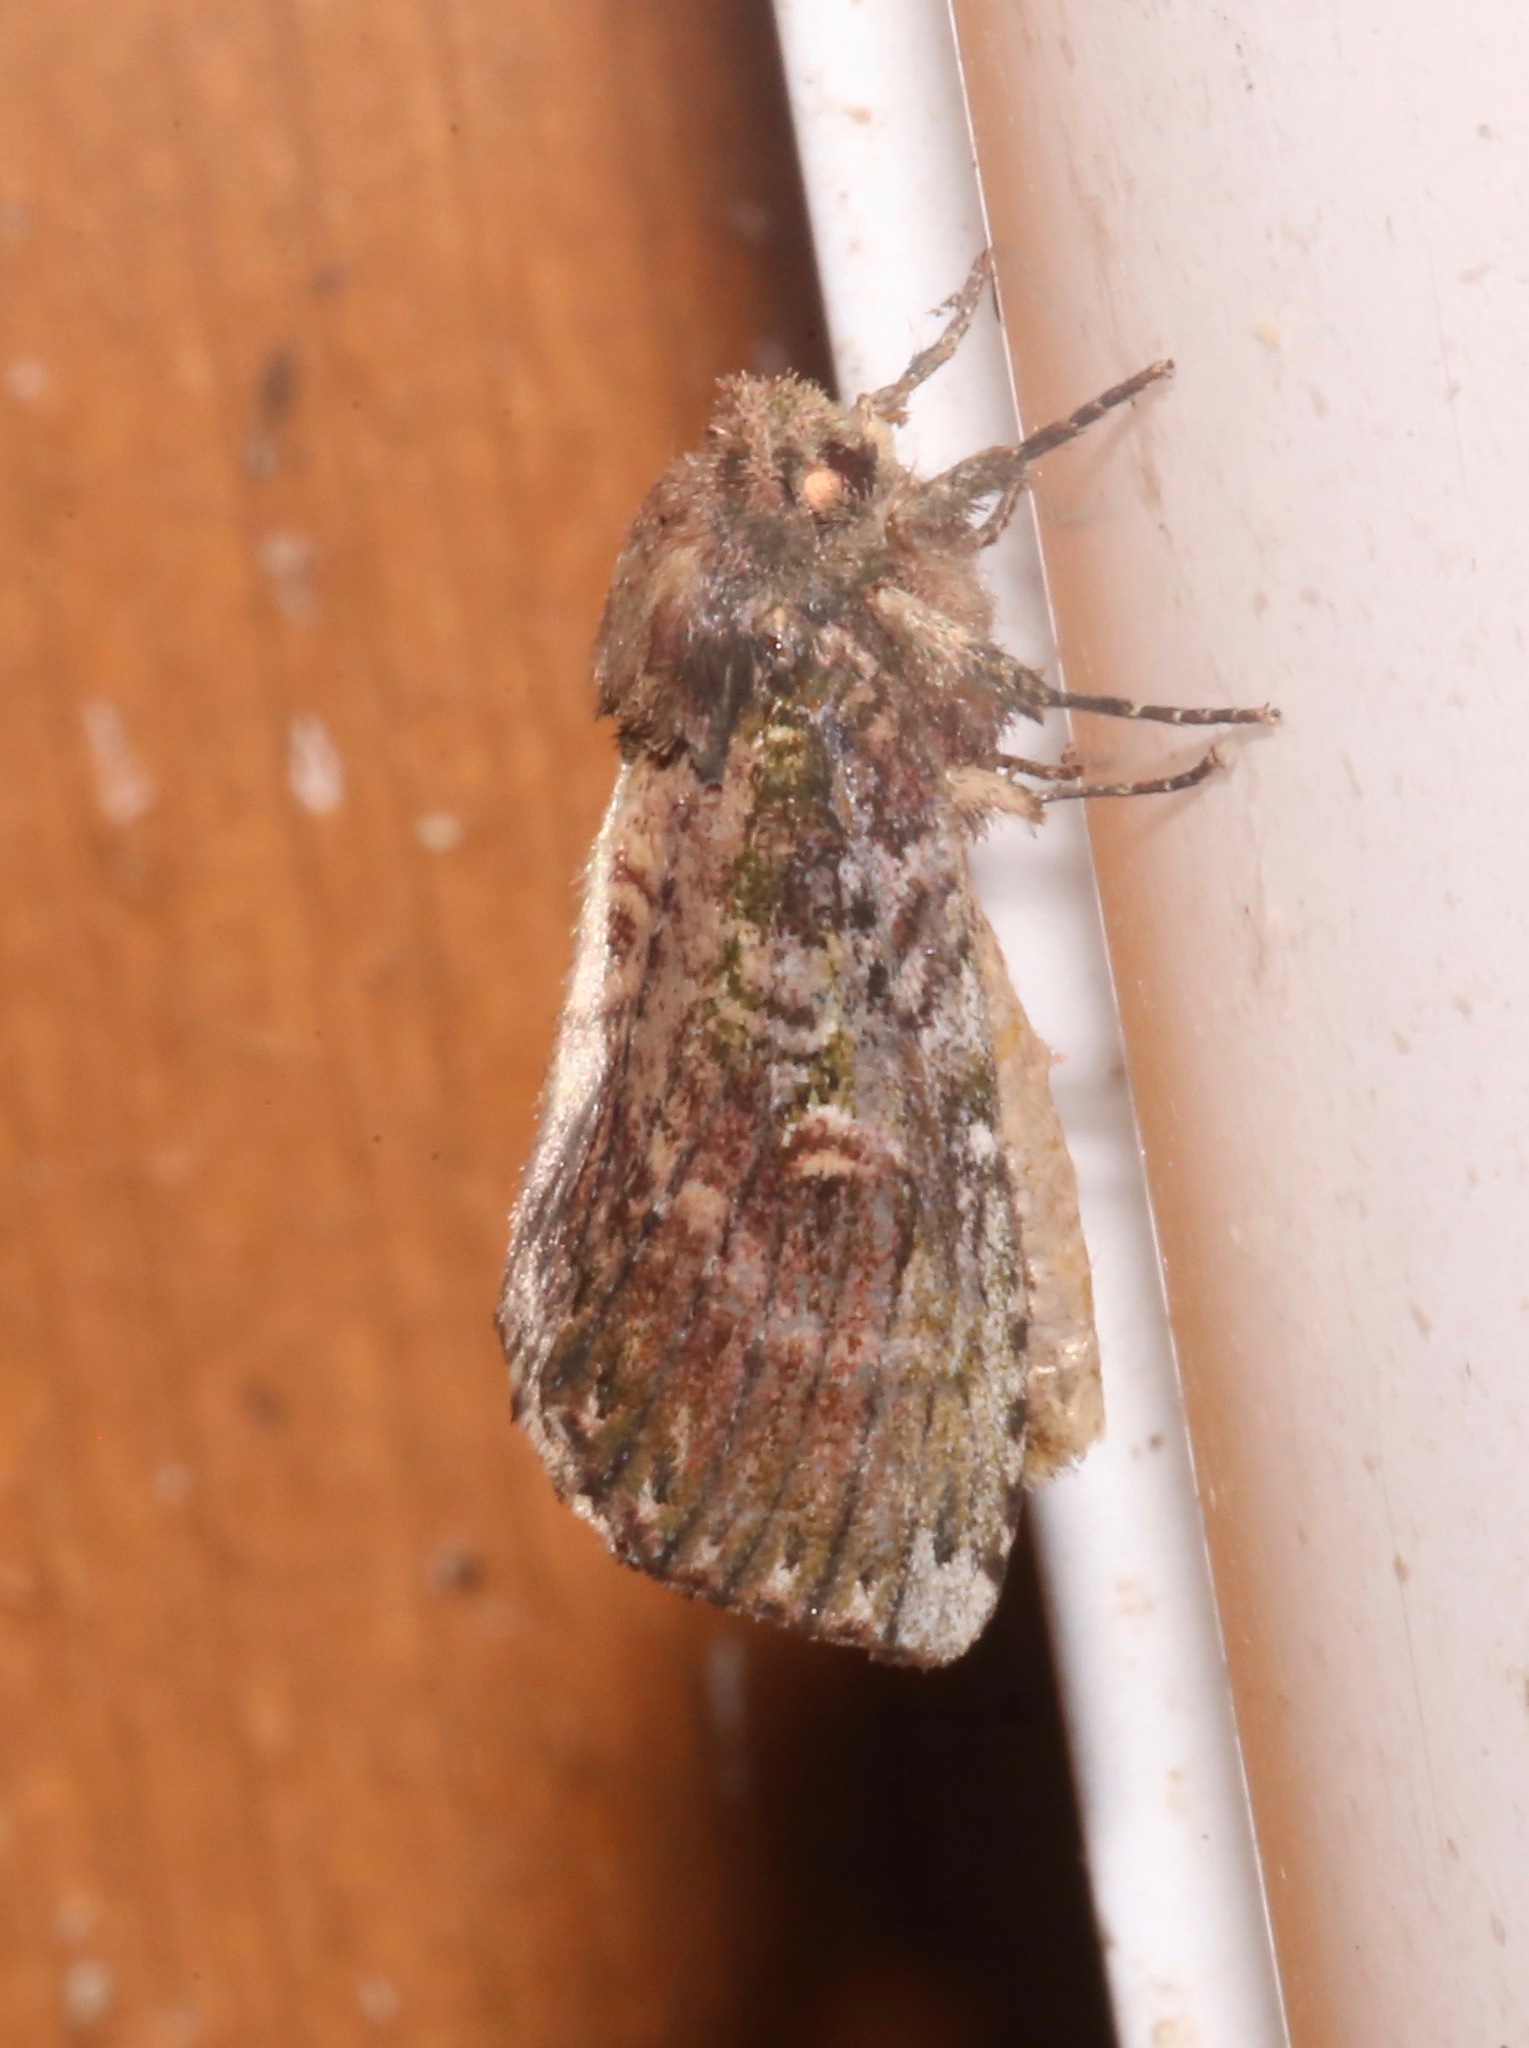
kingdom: Animalia
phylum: Arthropoda
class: Insecta
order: Lepidoptera
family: Notodontidae
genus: Schizura
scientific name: Schizura ipomaeae
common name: Morning-glory prominent
